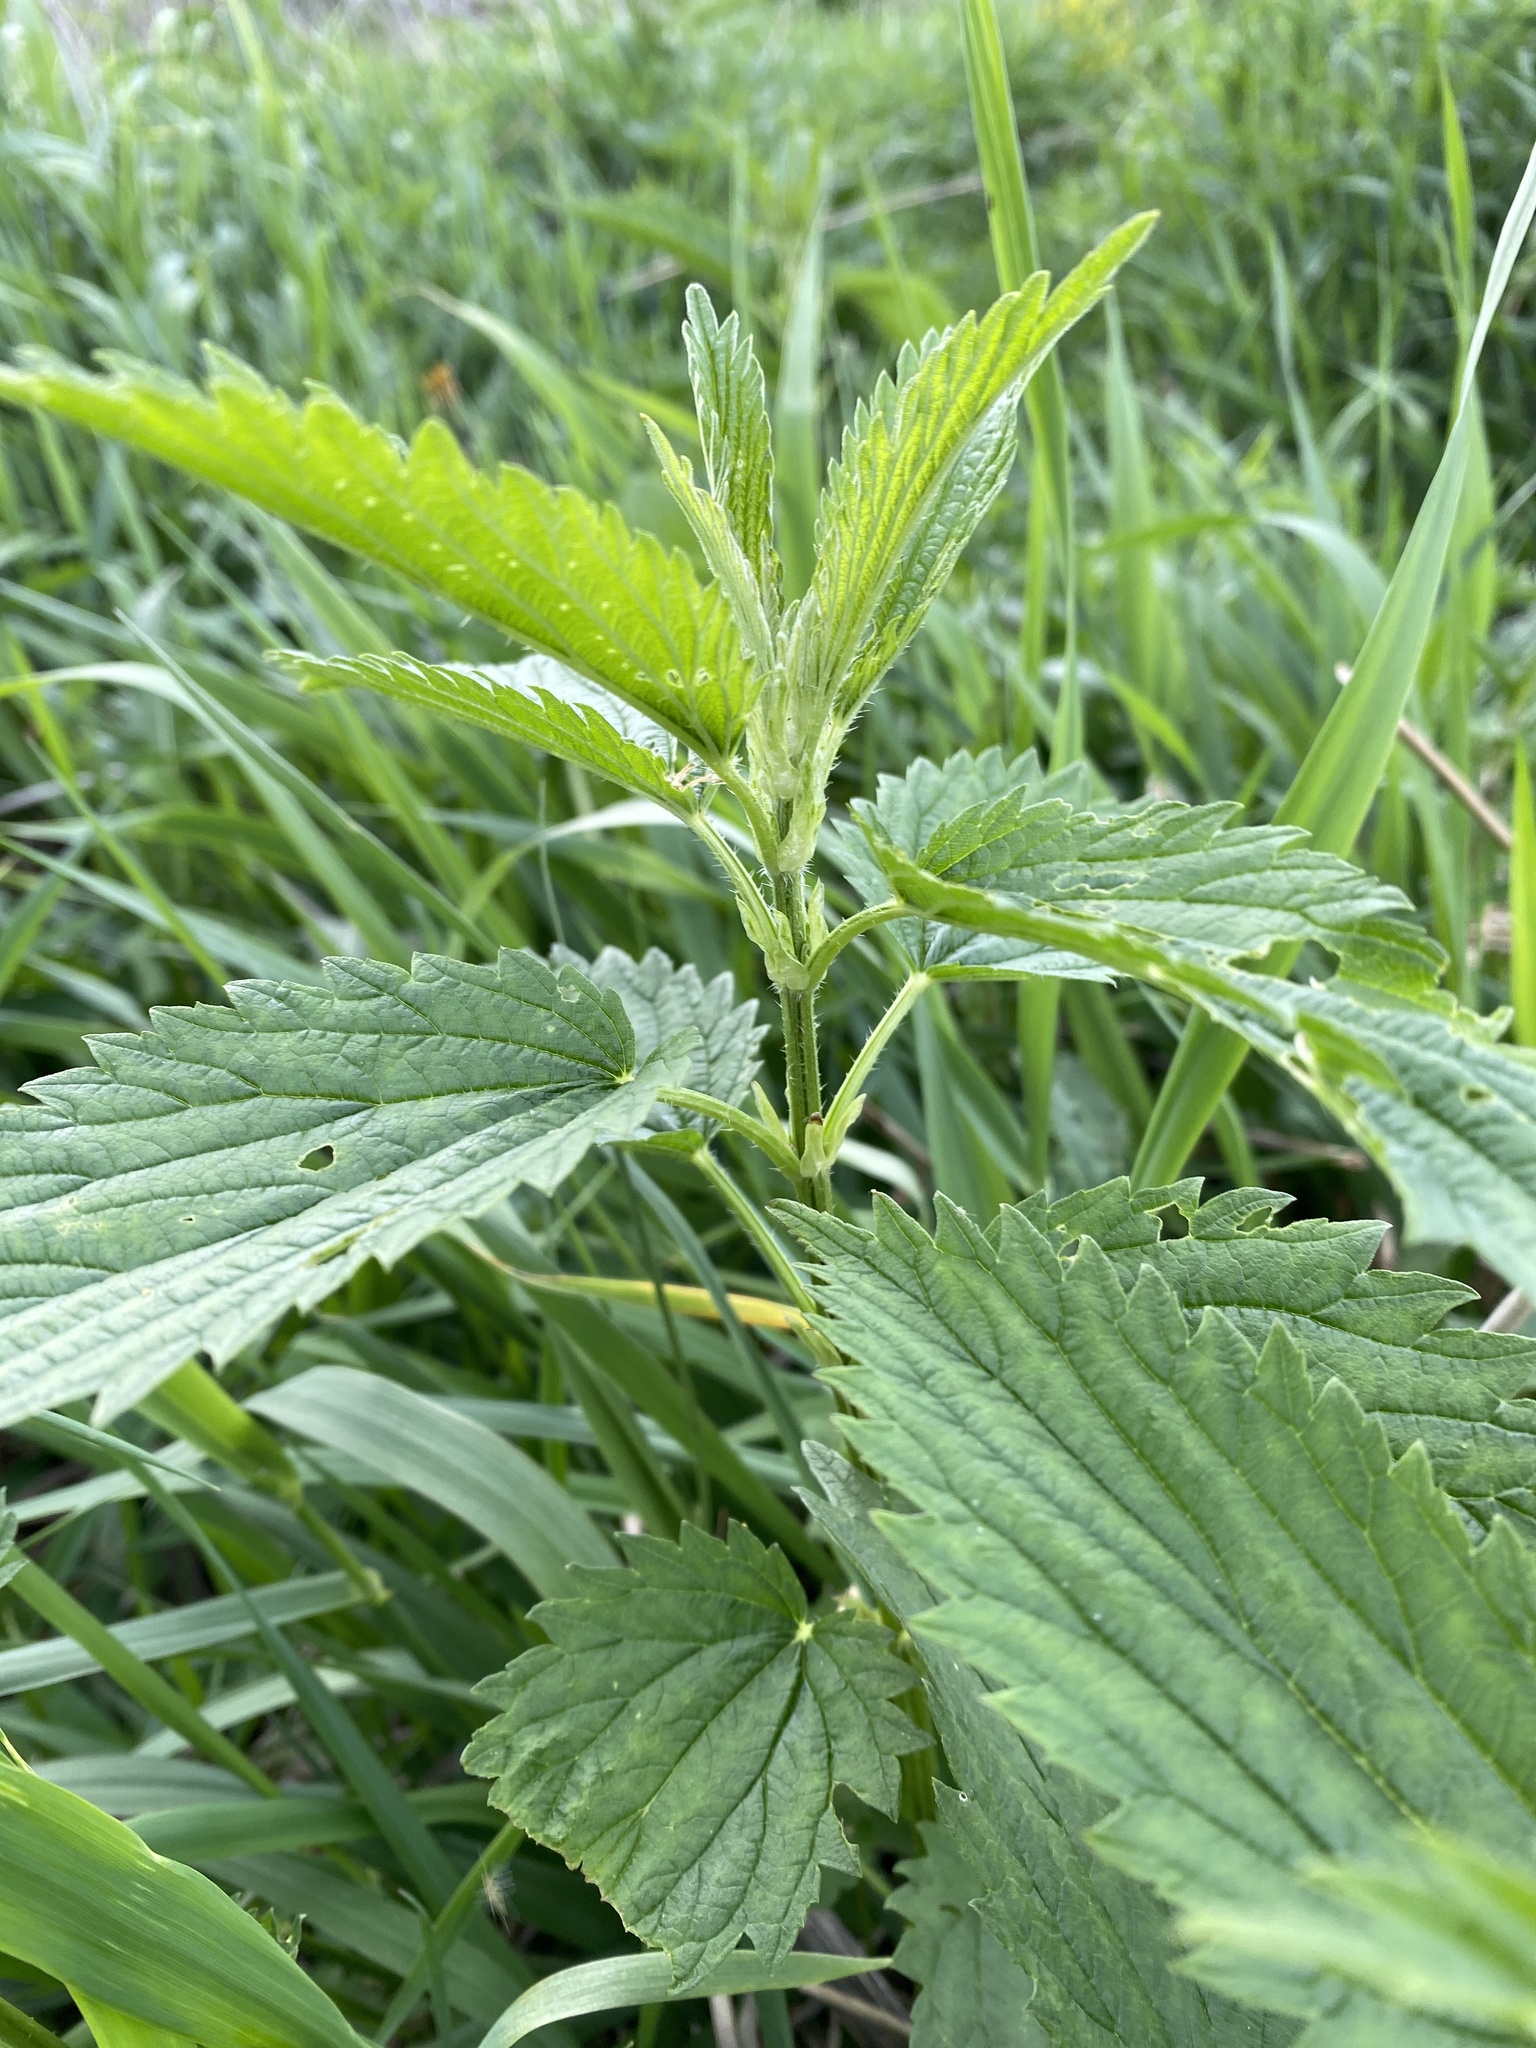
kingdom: Plantae
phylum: Tracheophyta
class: Magnoliopsida
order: Rosales
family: Urticaceae
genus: Urtica
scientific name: Urtica dioica
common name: Common nettle
